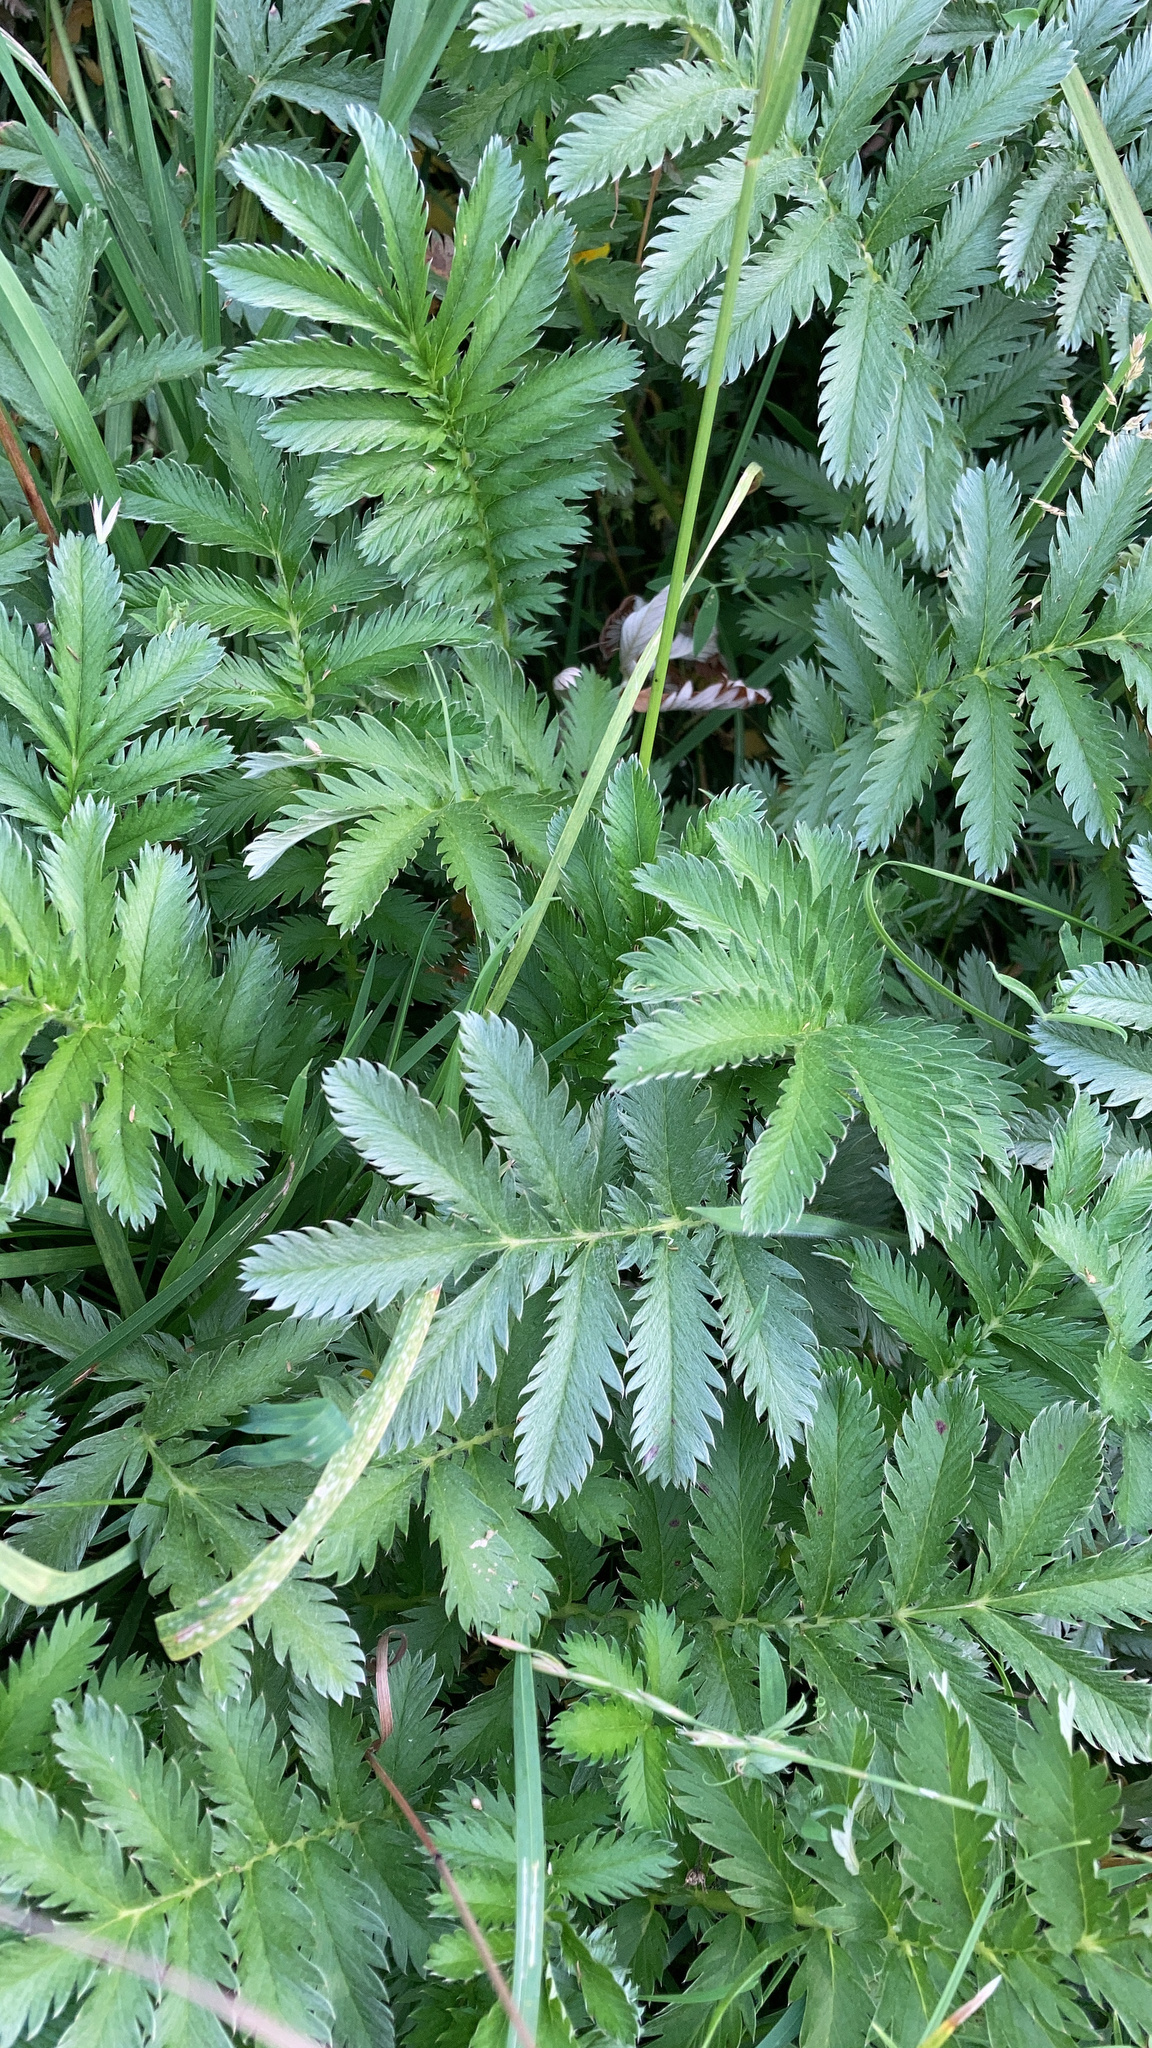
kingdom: Plantae
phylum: Tracheophyta
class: Magnoliopsida
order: Rosales
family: Rosaceae
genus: Argentina
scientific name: Argentina anserina
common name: Common silverweed
